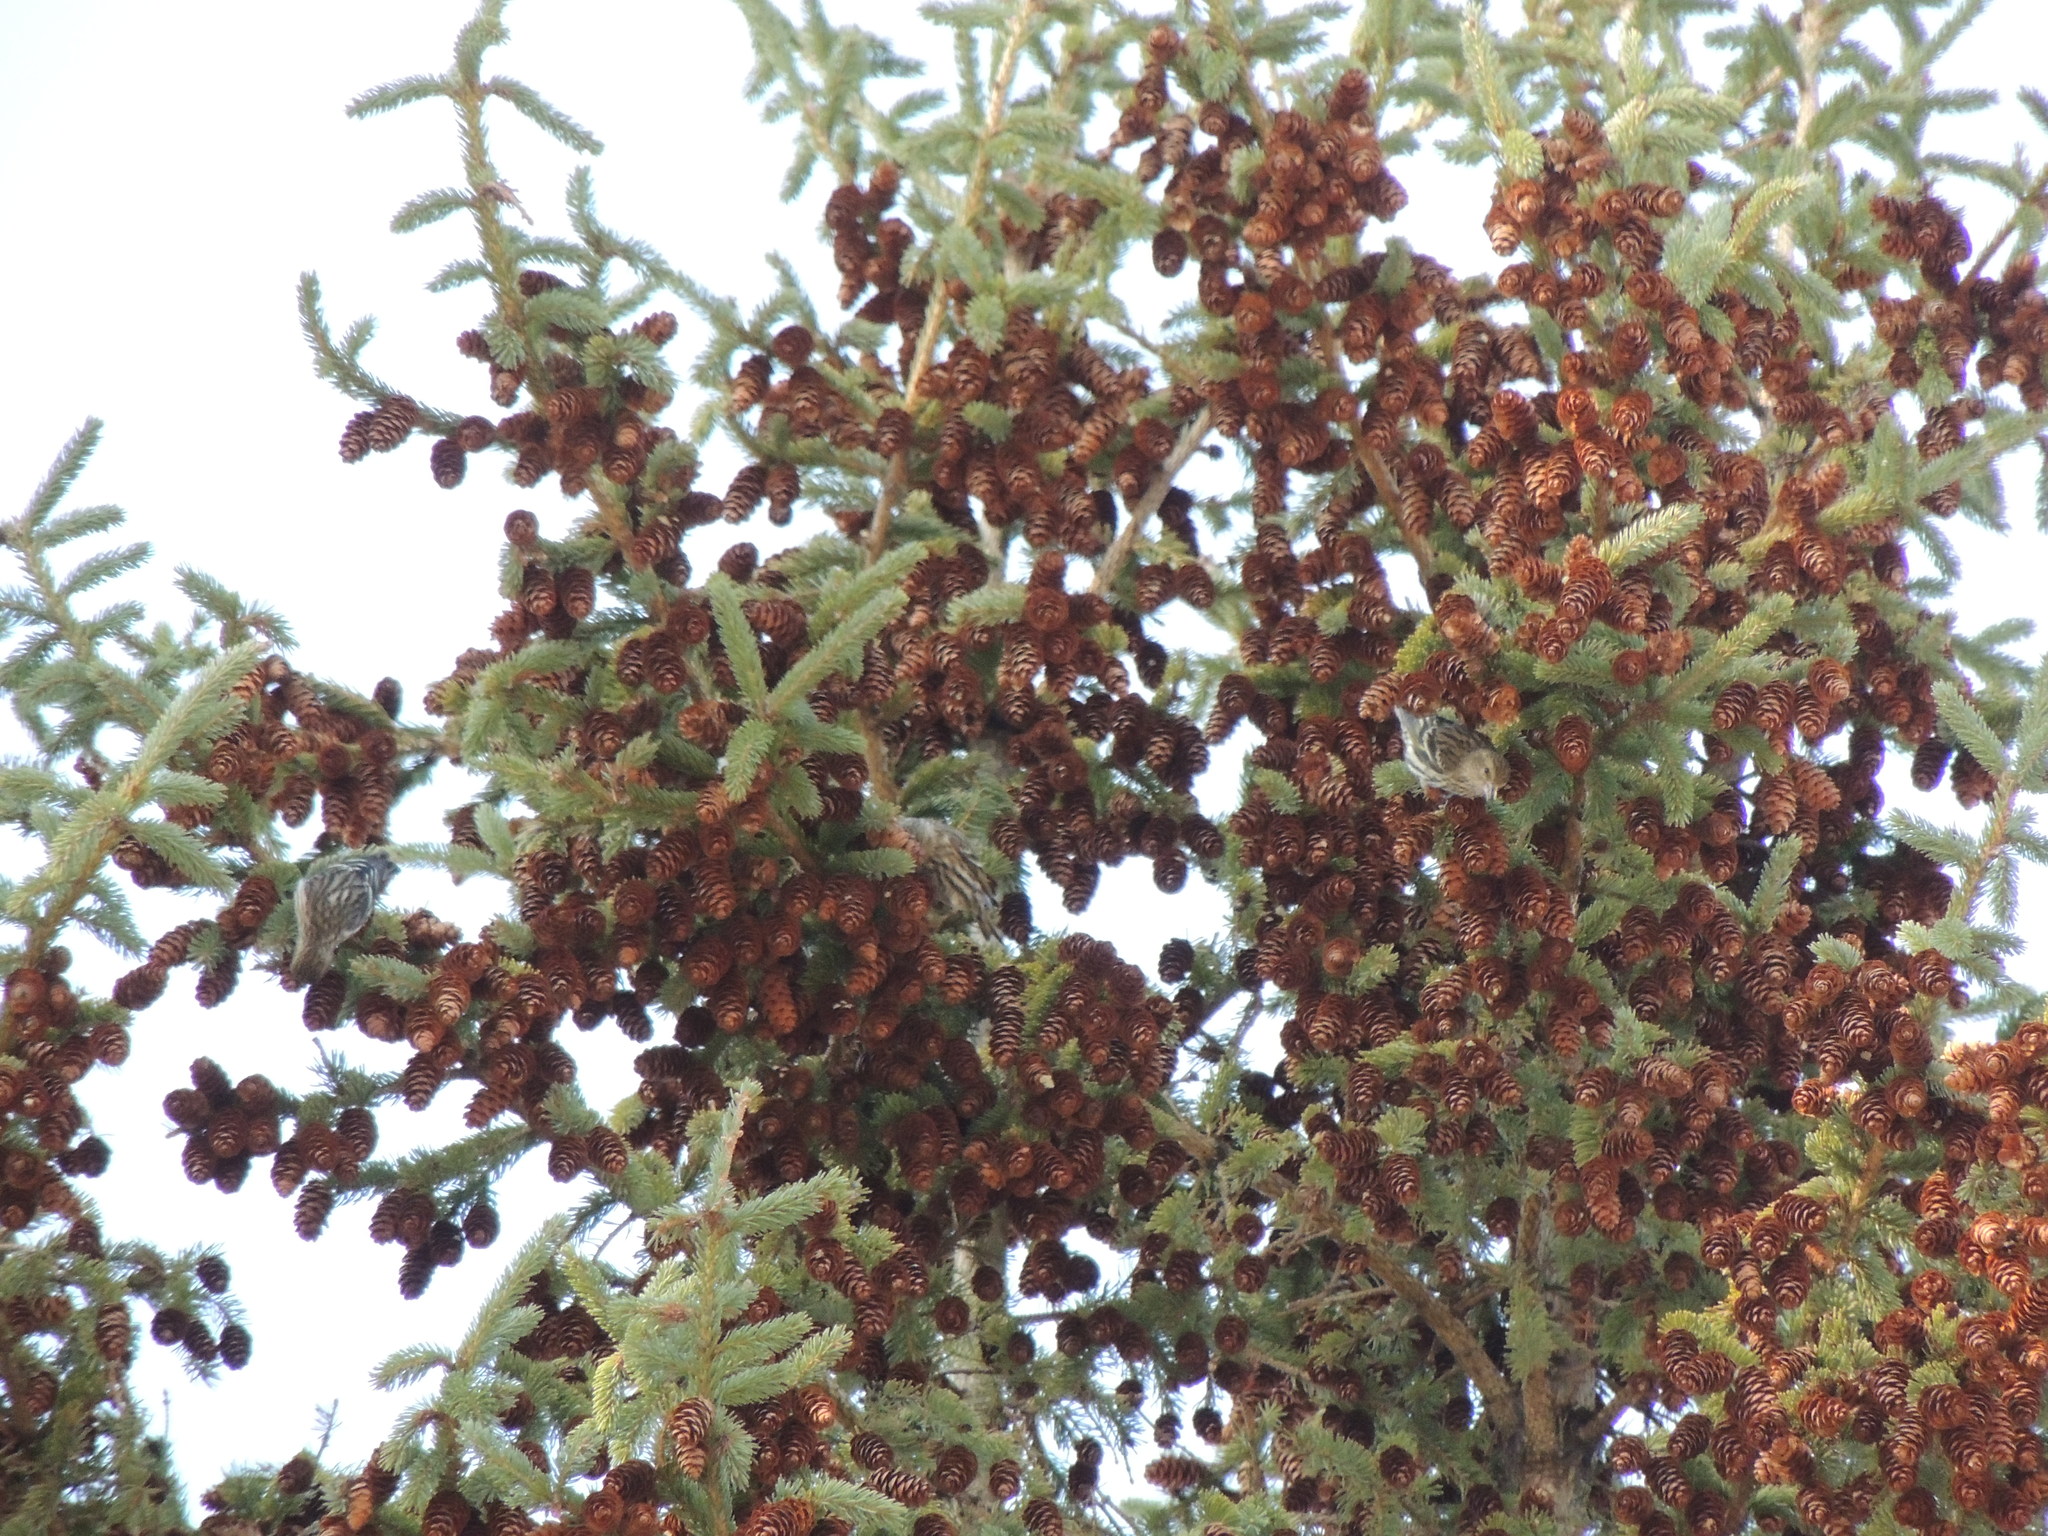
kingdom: Animalia
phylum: Chordata
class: Aves
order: Passeriformes
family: Fringillidae
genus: Spinus
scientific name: Spinus pinus
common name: Pine siskin
